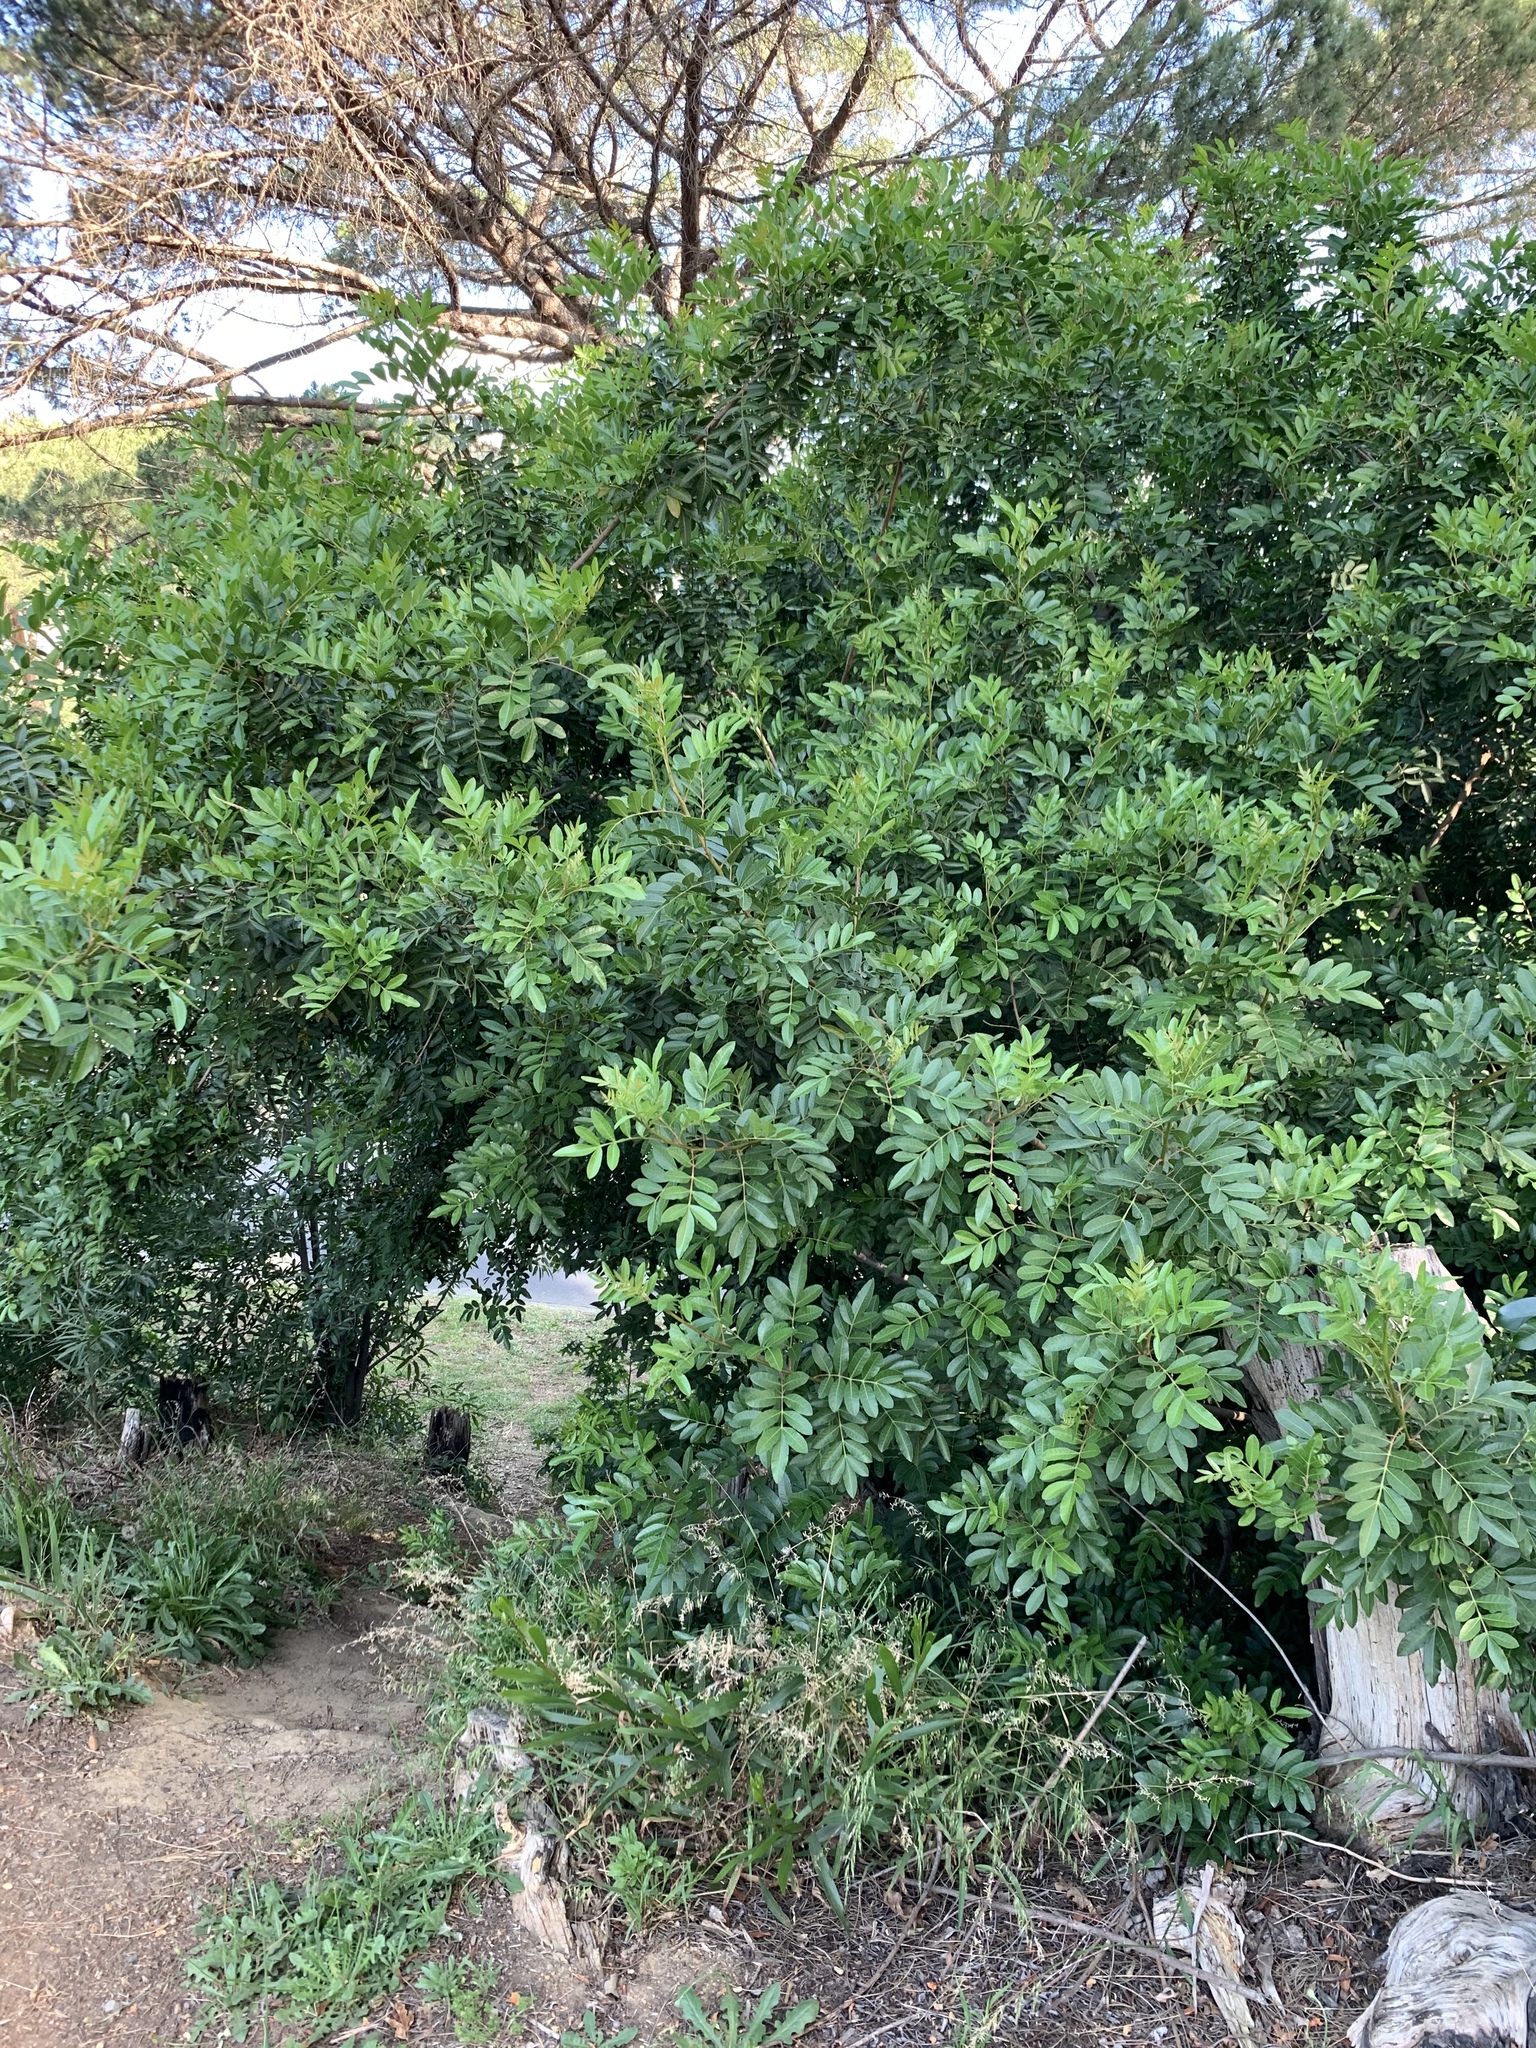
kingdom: Plantae
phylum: Tracheophyta
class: Magnoliopsida
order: Sapindales
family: Anacardiaceae
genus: Schinus
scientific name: Schinus terebinthifolia
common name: Brazilian peppertree
